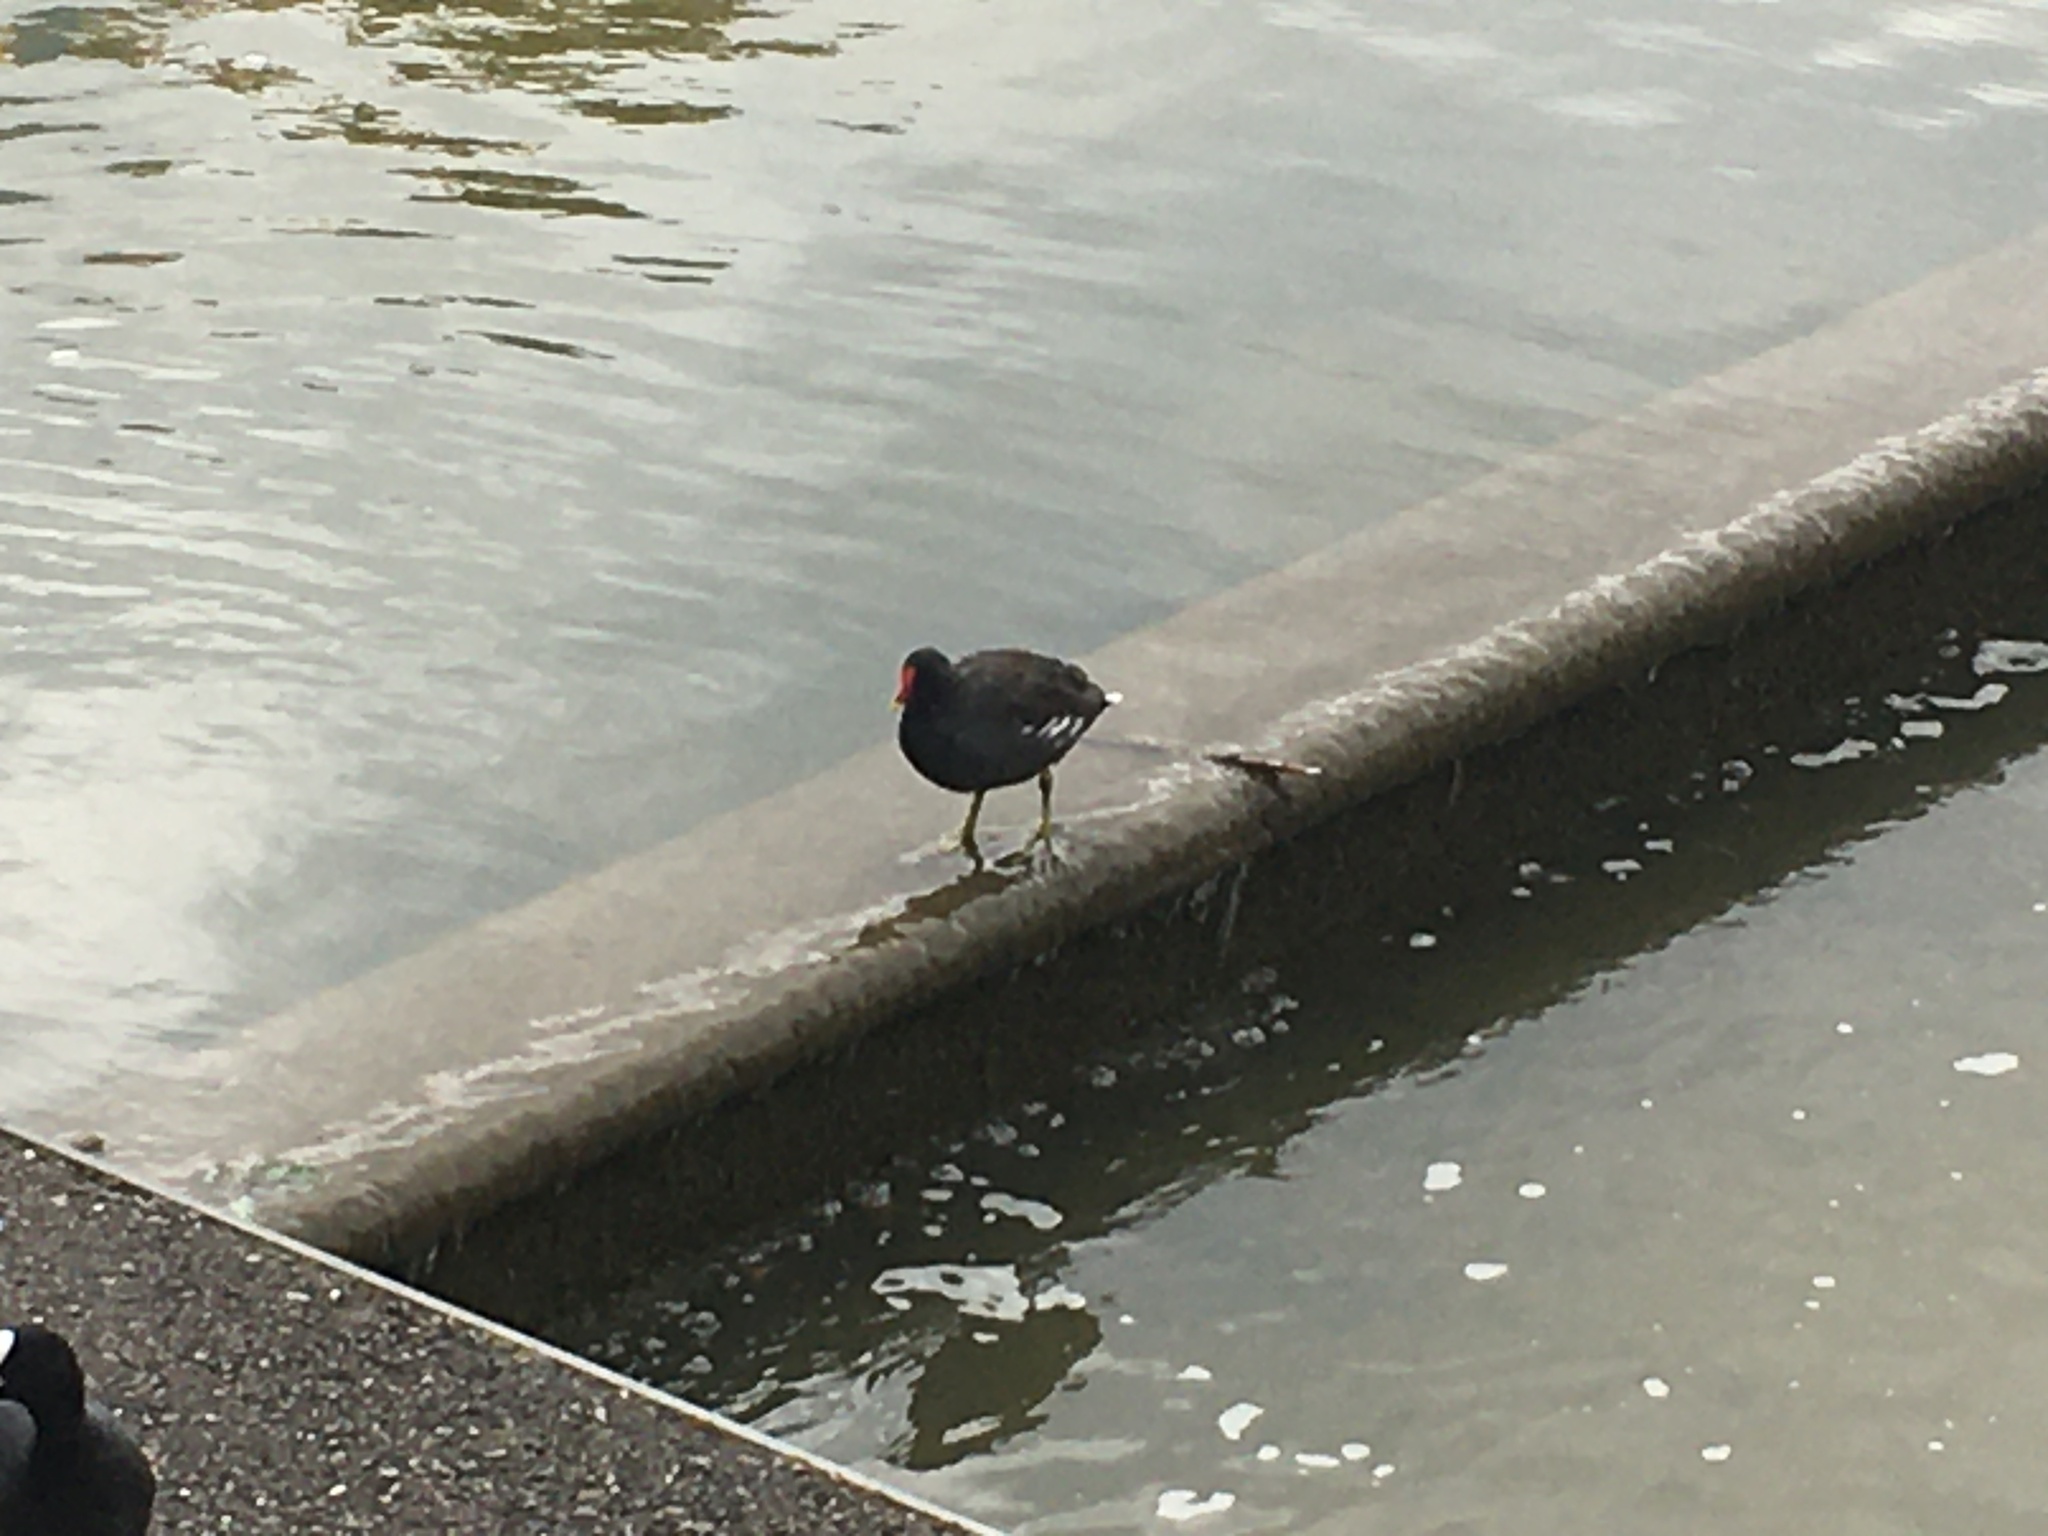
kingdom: Animalia
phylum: Chordata
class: Aves
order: Gruiformes
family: Rallidae
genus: Gallinula
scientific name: Gallinula chloropus
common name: Common moorhen
